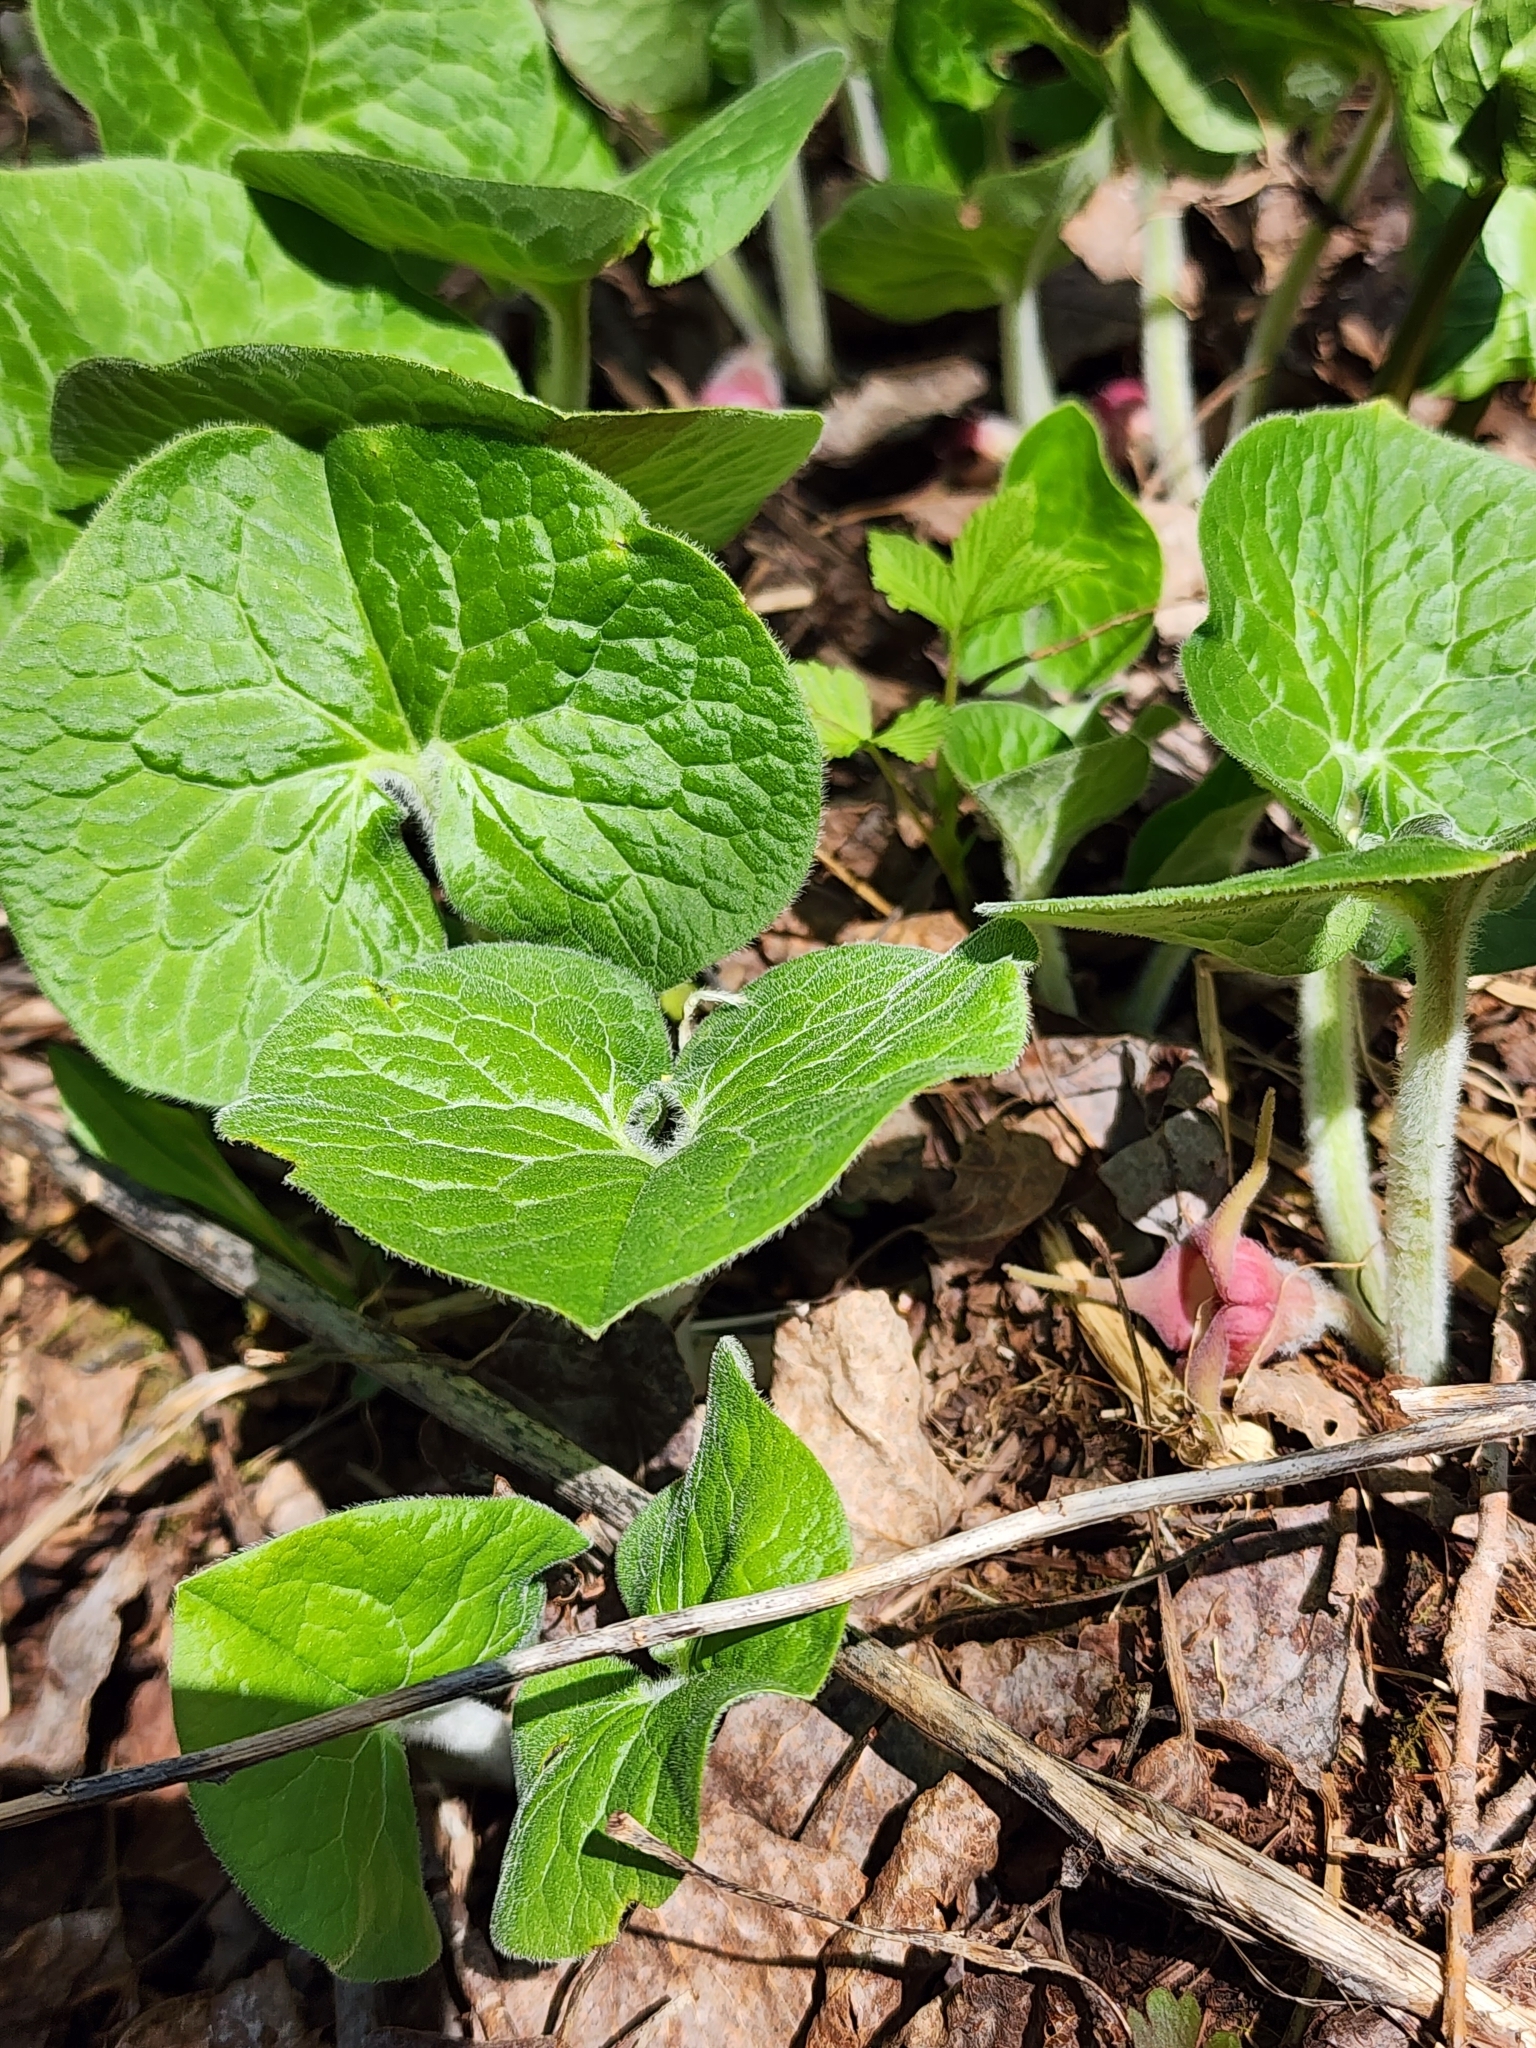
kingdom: Plantae
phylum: Tracheophyta
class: Magnoliopsida
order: Piperales
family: Aristolochiaceae
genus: Asarum
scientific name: Asarum canadense
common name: Wild ginger
